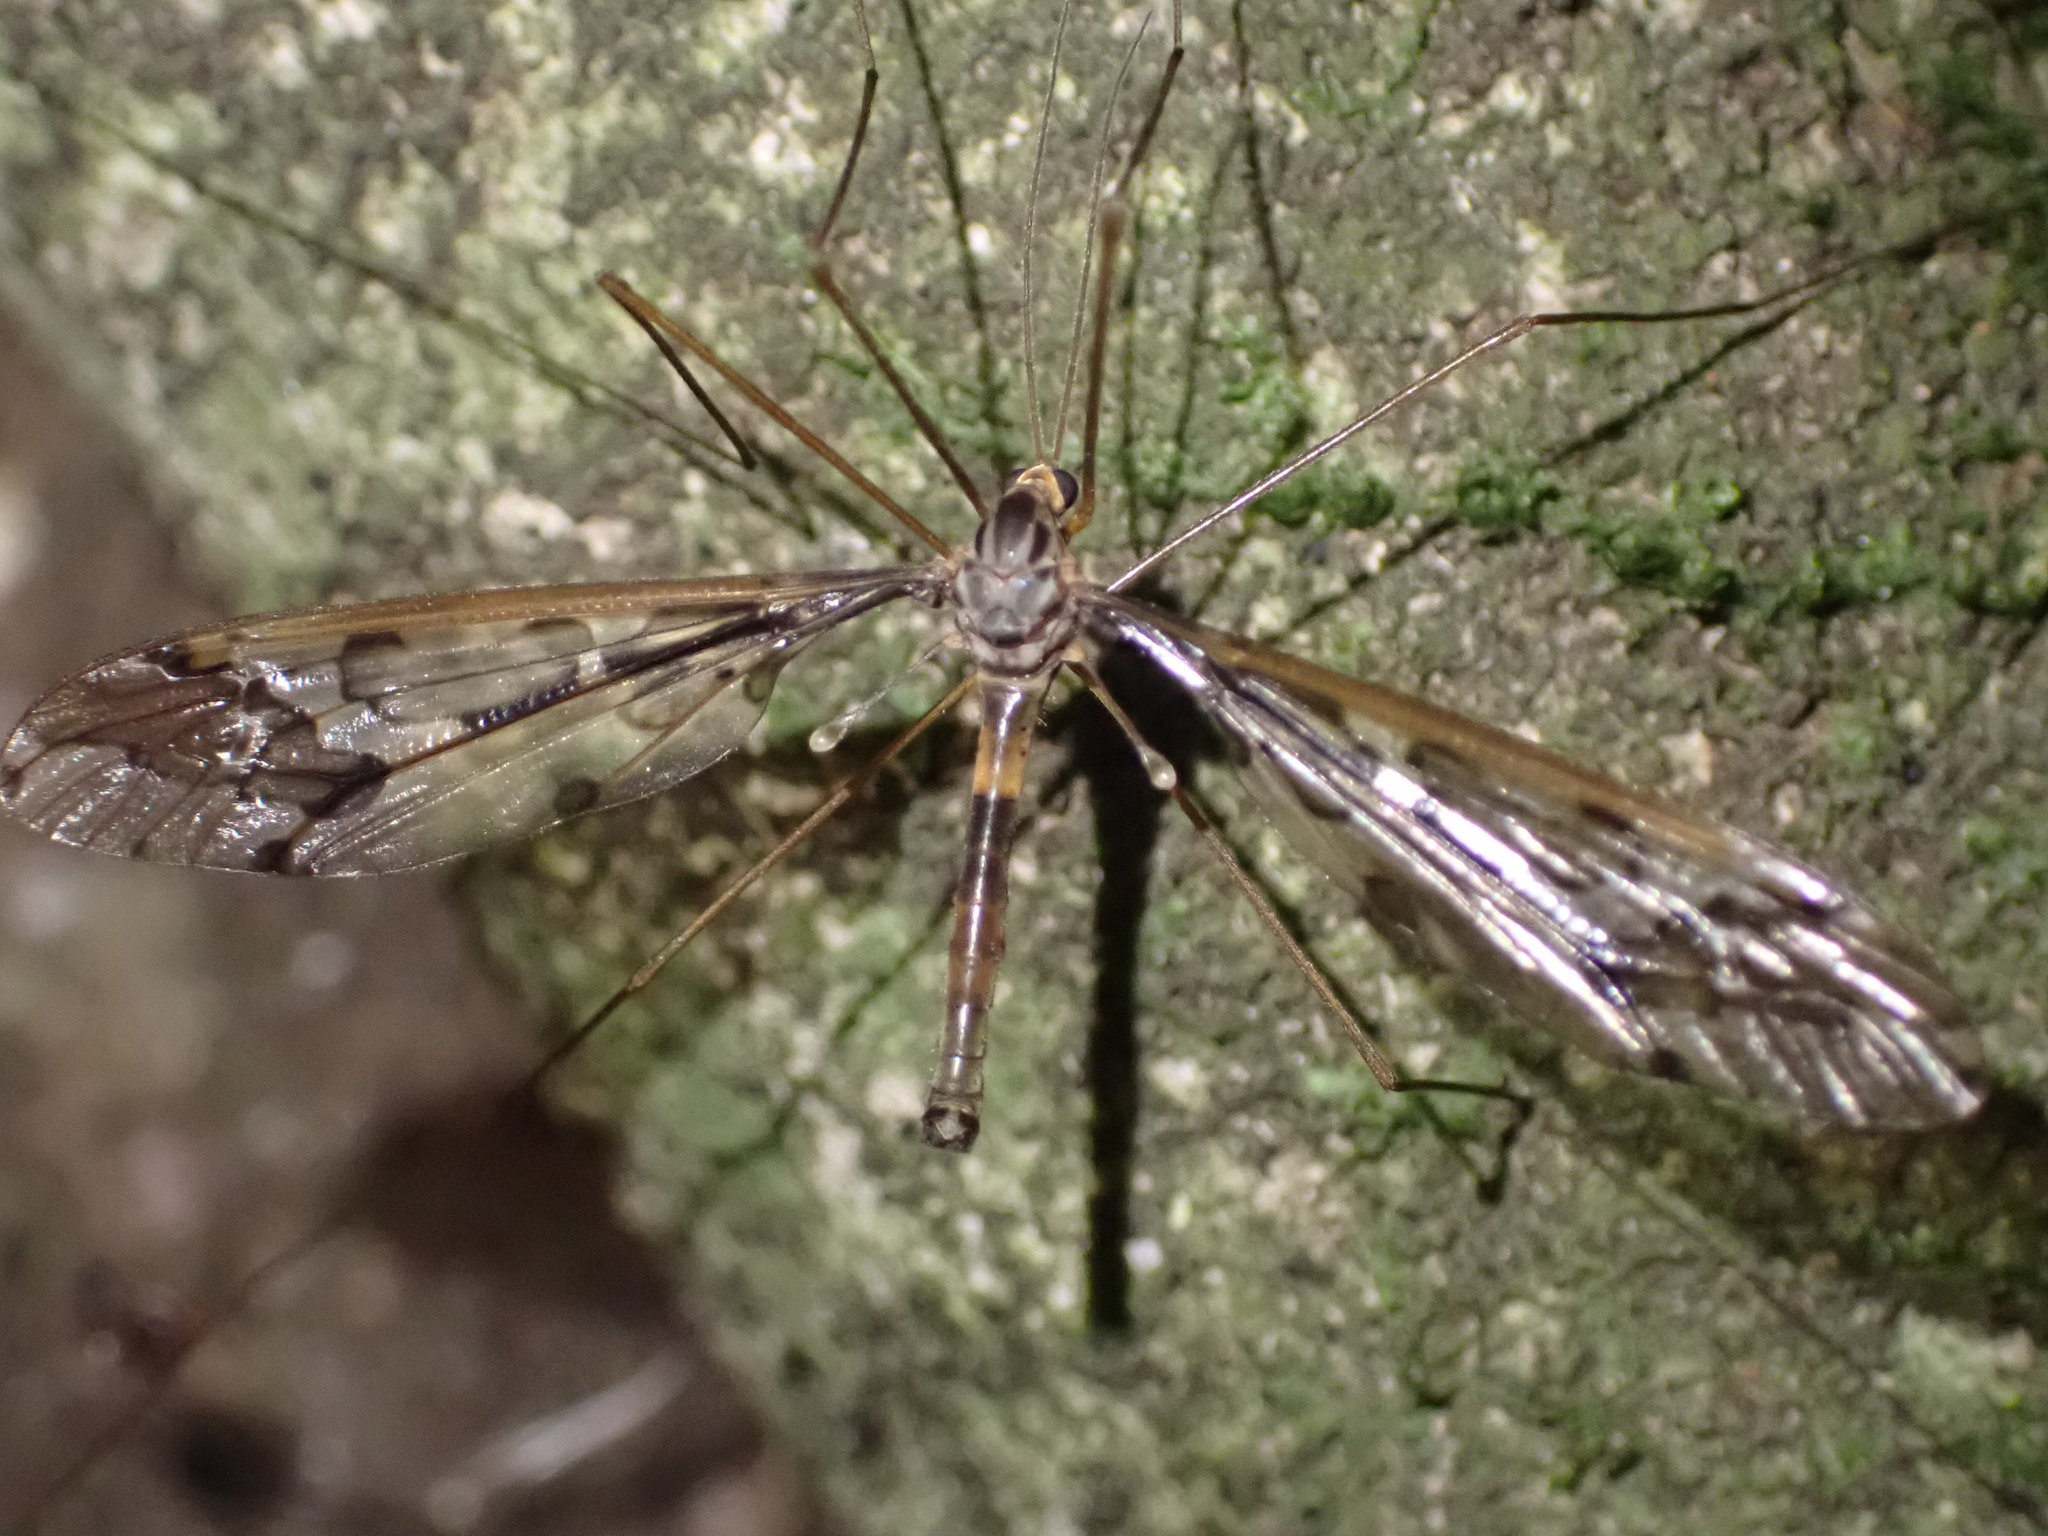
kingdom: Animalia
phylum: Arthropoda
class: Insecta
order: Diptera
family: Tipulidae
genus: Leptotarsus
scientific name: Leptotarsus binotatus
